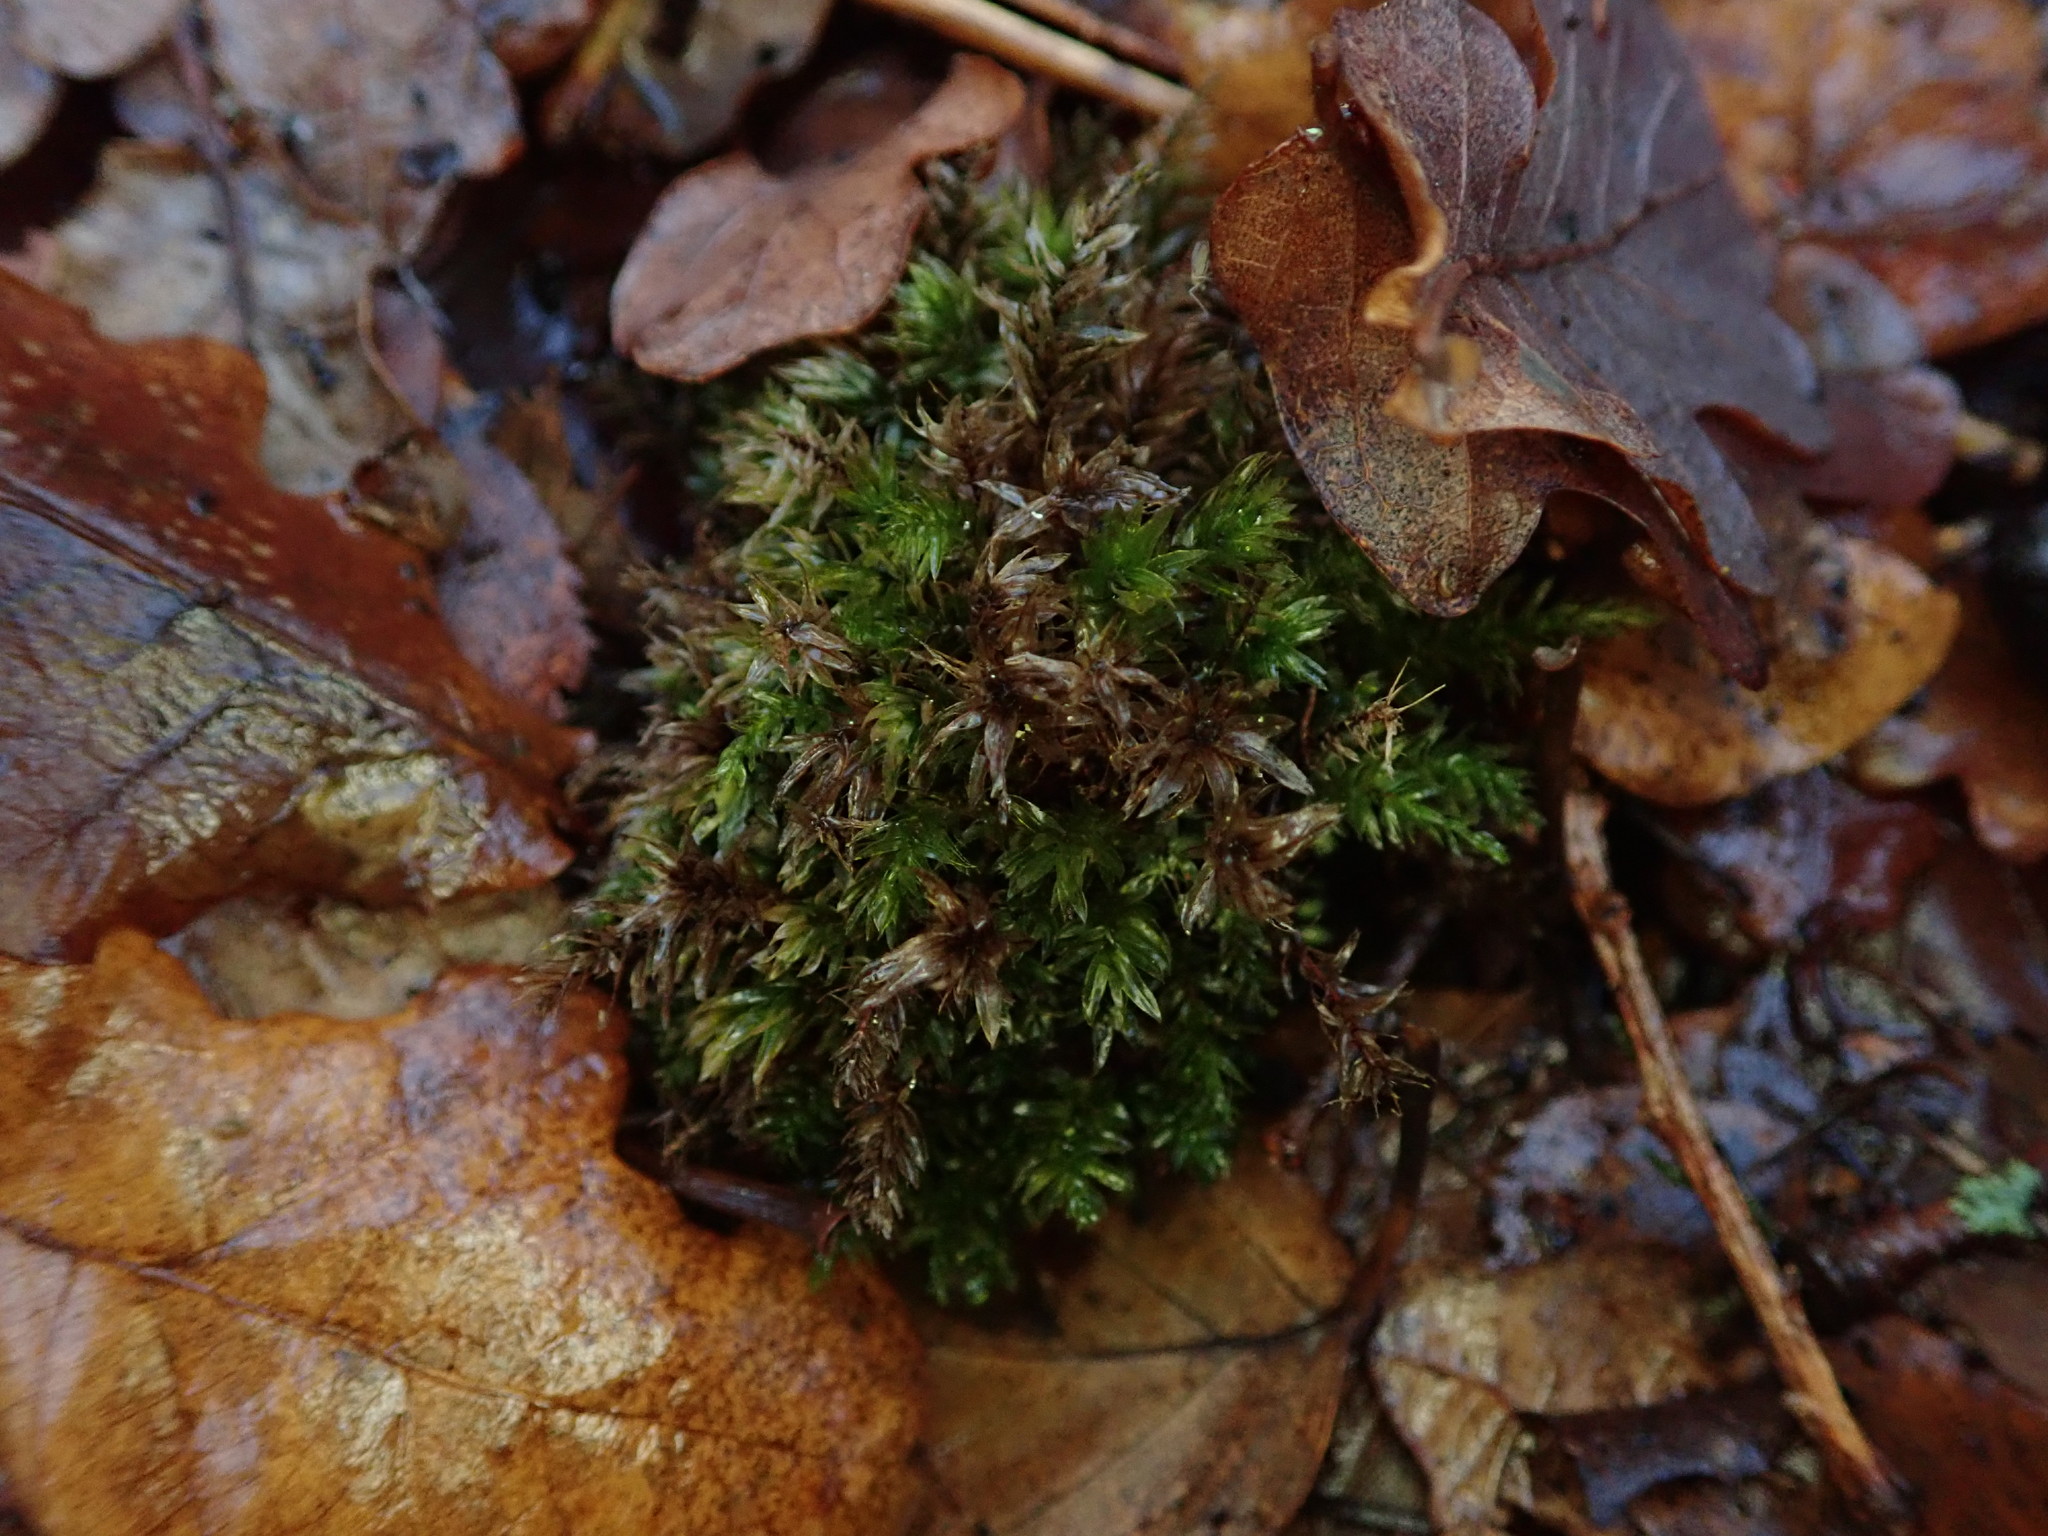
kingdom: Plantae
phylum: Bryophyta
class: Bryopsida
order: Bryales
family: Mniaceae
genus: Mnium
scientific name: Mnium hornum
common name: Swan's-neck leafy moss
